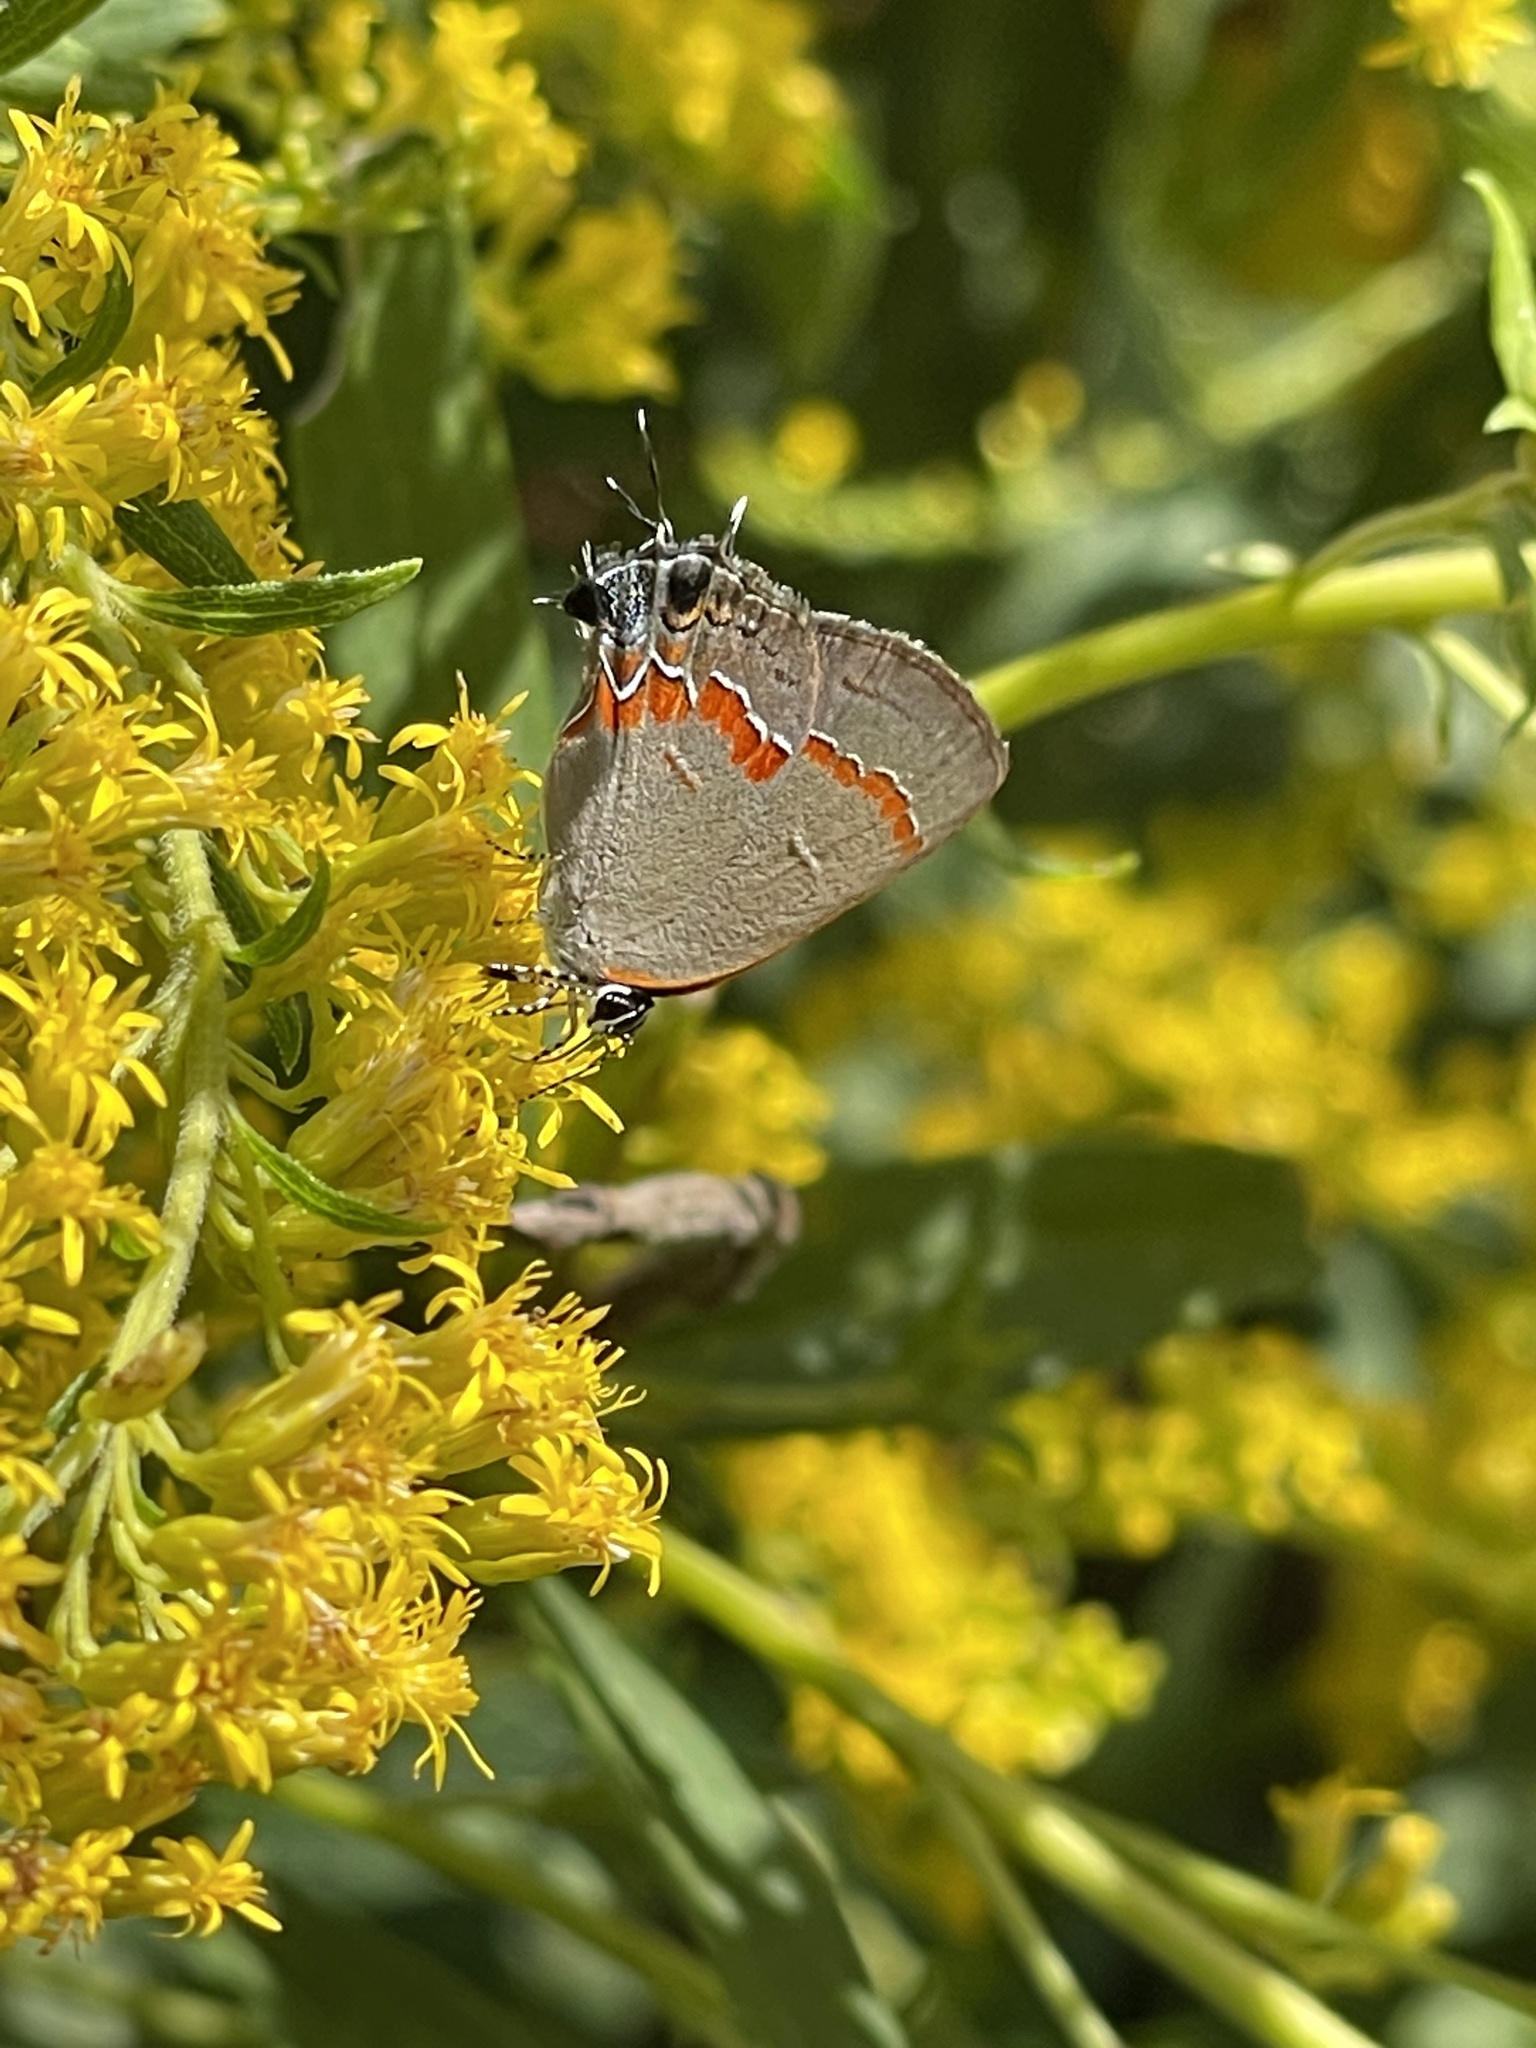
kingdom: Animalia
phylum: Arthropoda
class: Insecta
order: Lepidoptera
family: Lycaenidae
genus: Calycopis
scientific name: Calycopis cecrops
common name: Red-banded hairstreak
